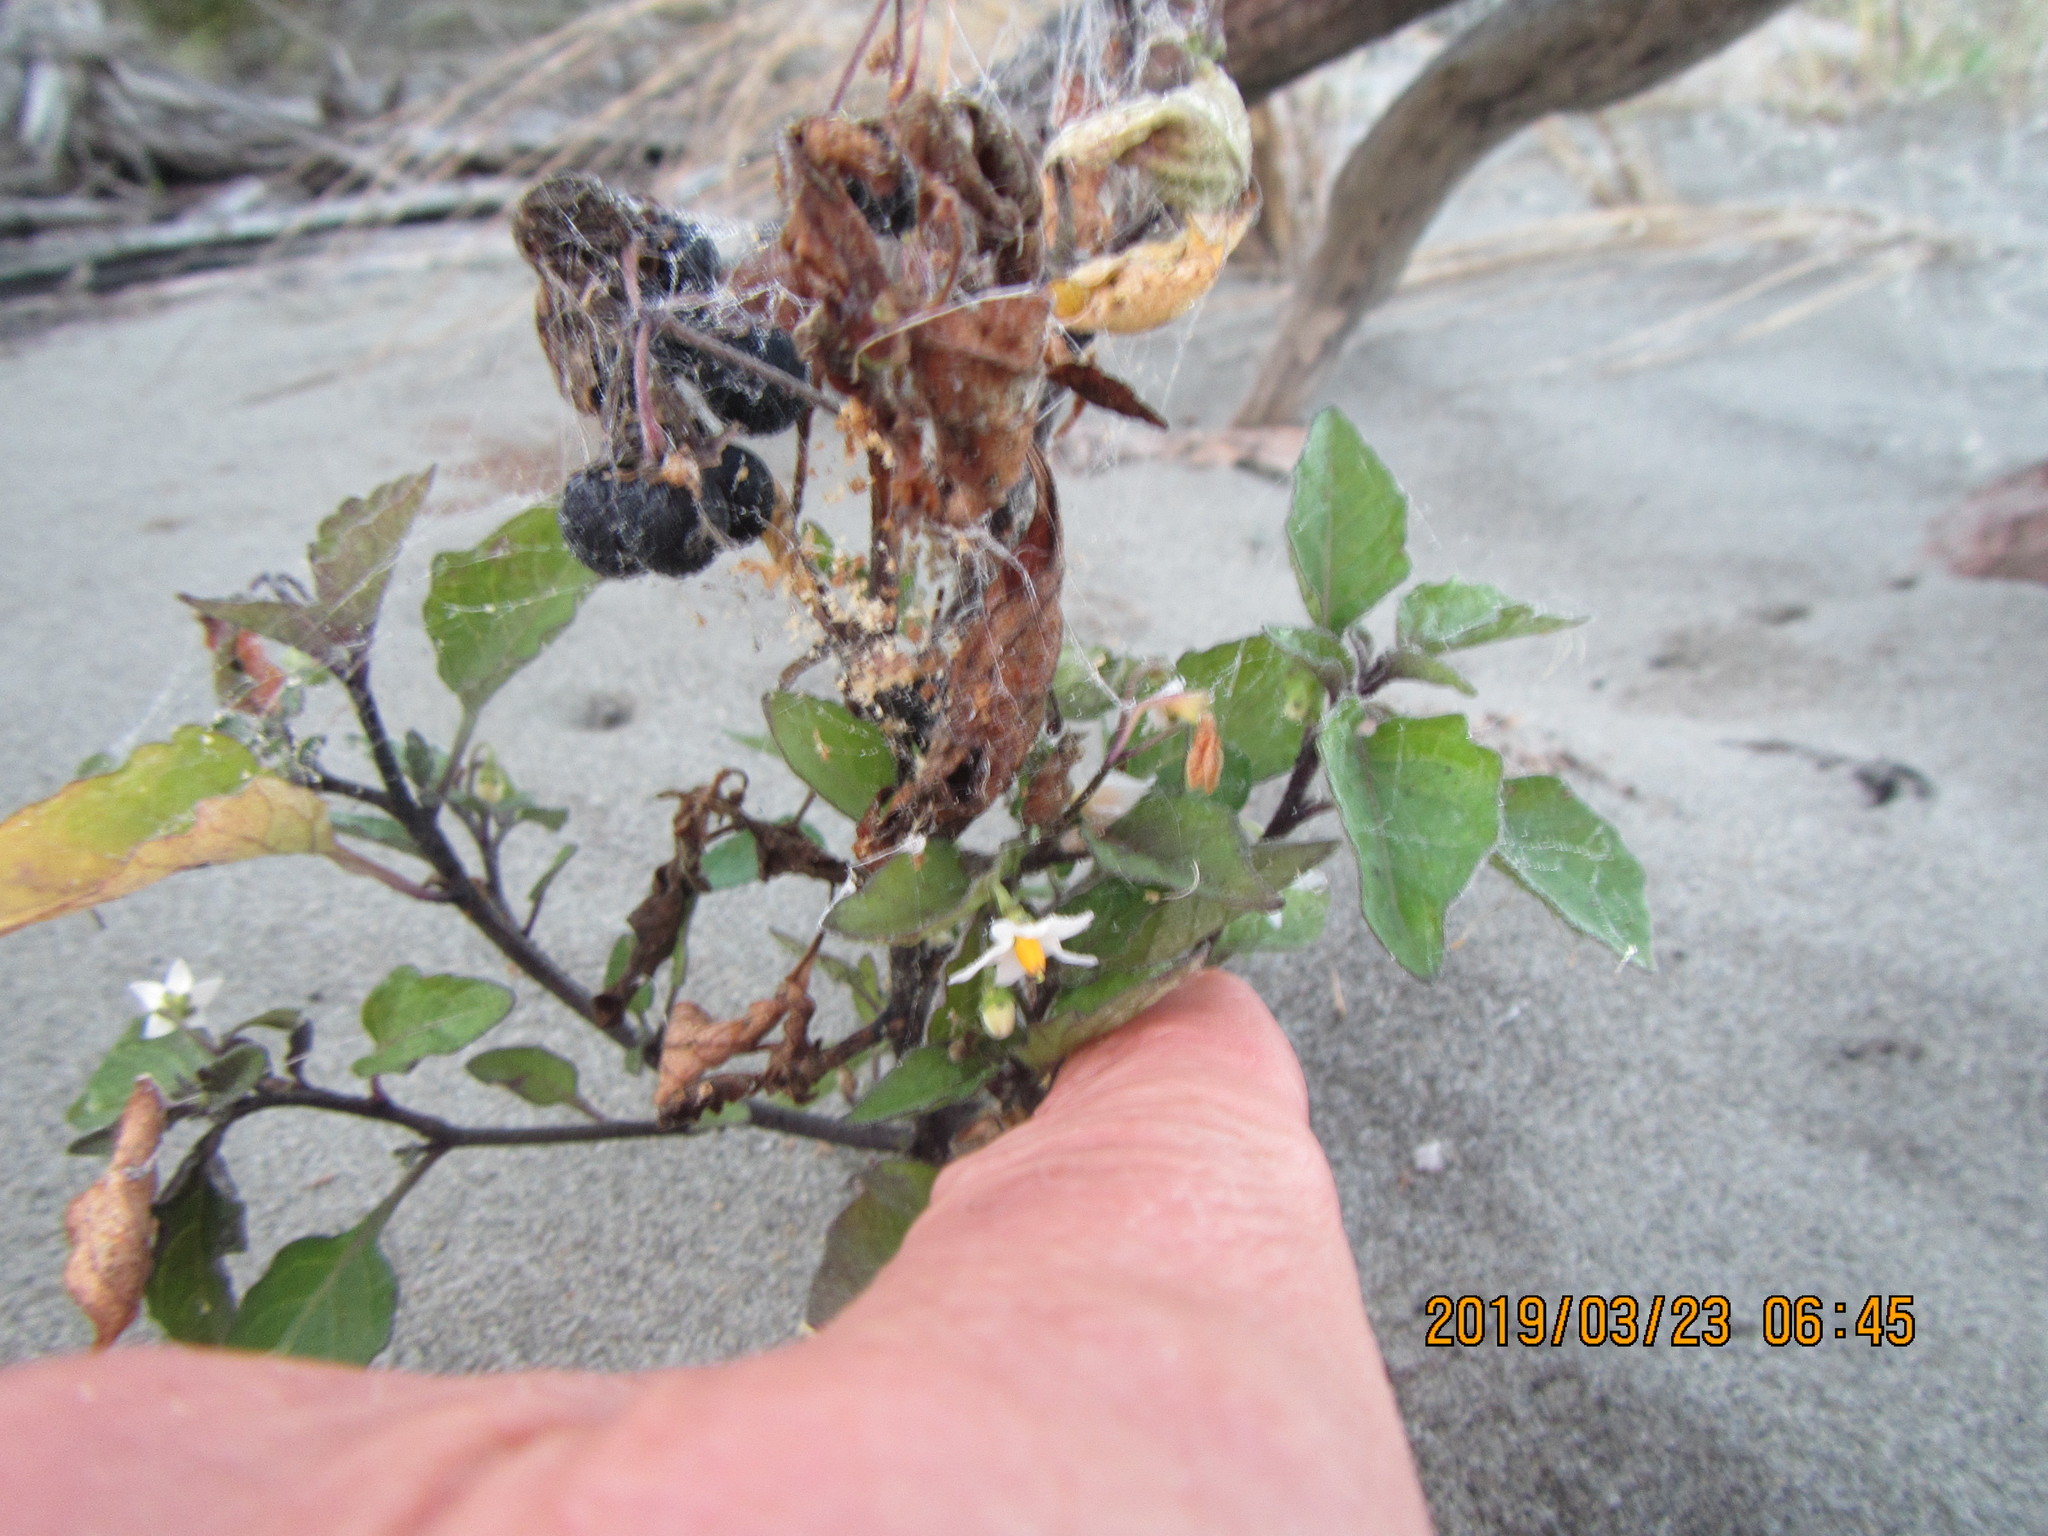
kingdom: Plantae
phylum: Tracheophyta
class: Magnoliopsida
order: Solanales
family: Solanaceae
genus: Solanum
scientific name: Solanum nigrum
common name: Black nightshade
